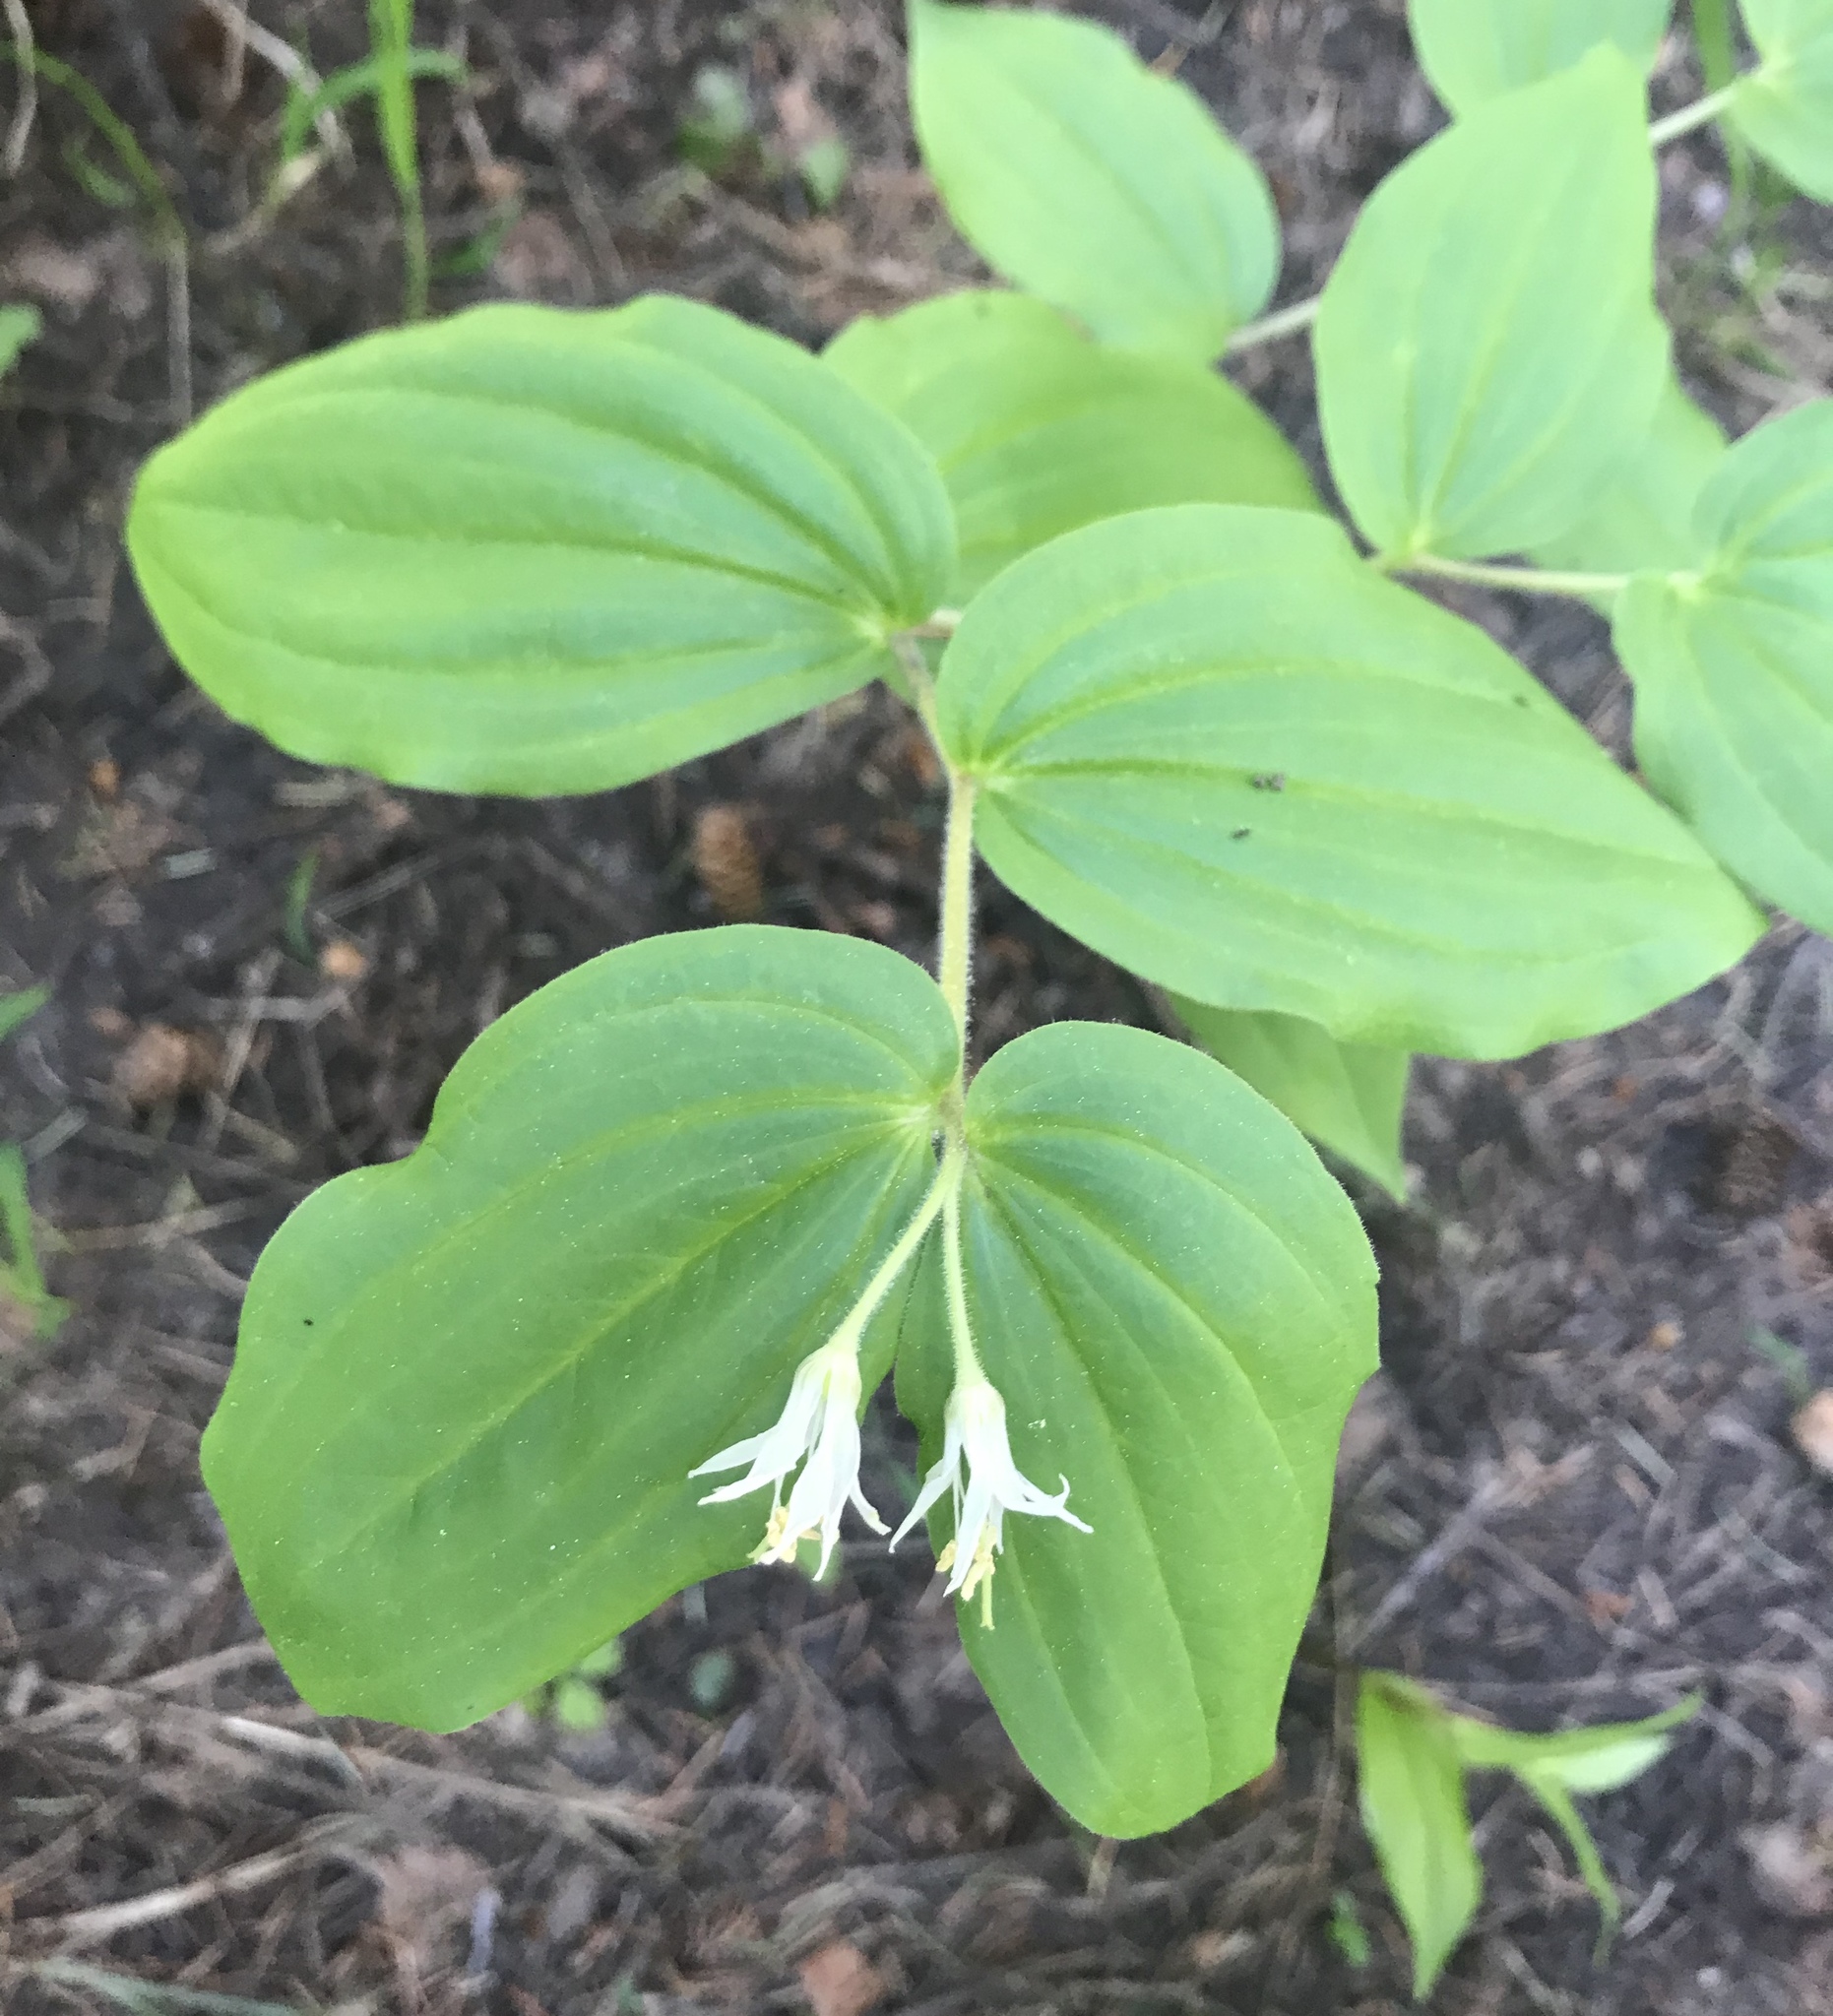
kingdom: Plantae
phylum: Tracheophyta
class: Liliopsida
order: Liliales
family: Liliaceae
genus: Prosartes
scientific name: Prosartes trachycarpa
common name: Rough-fruit fairy-bells
